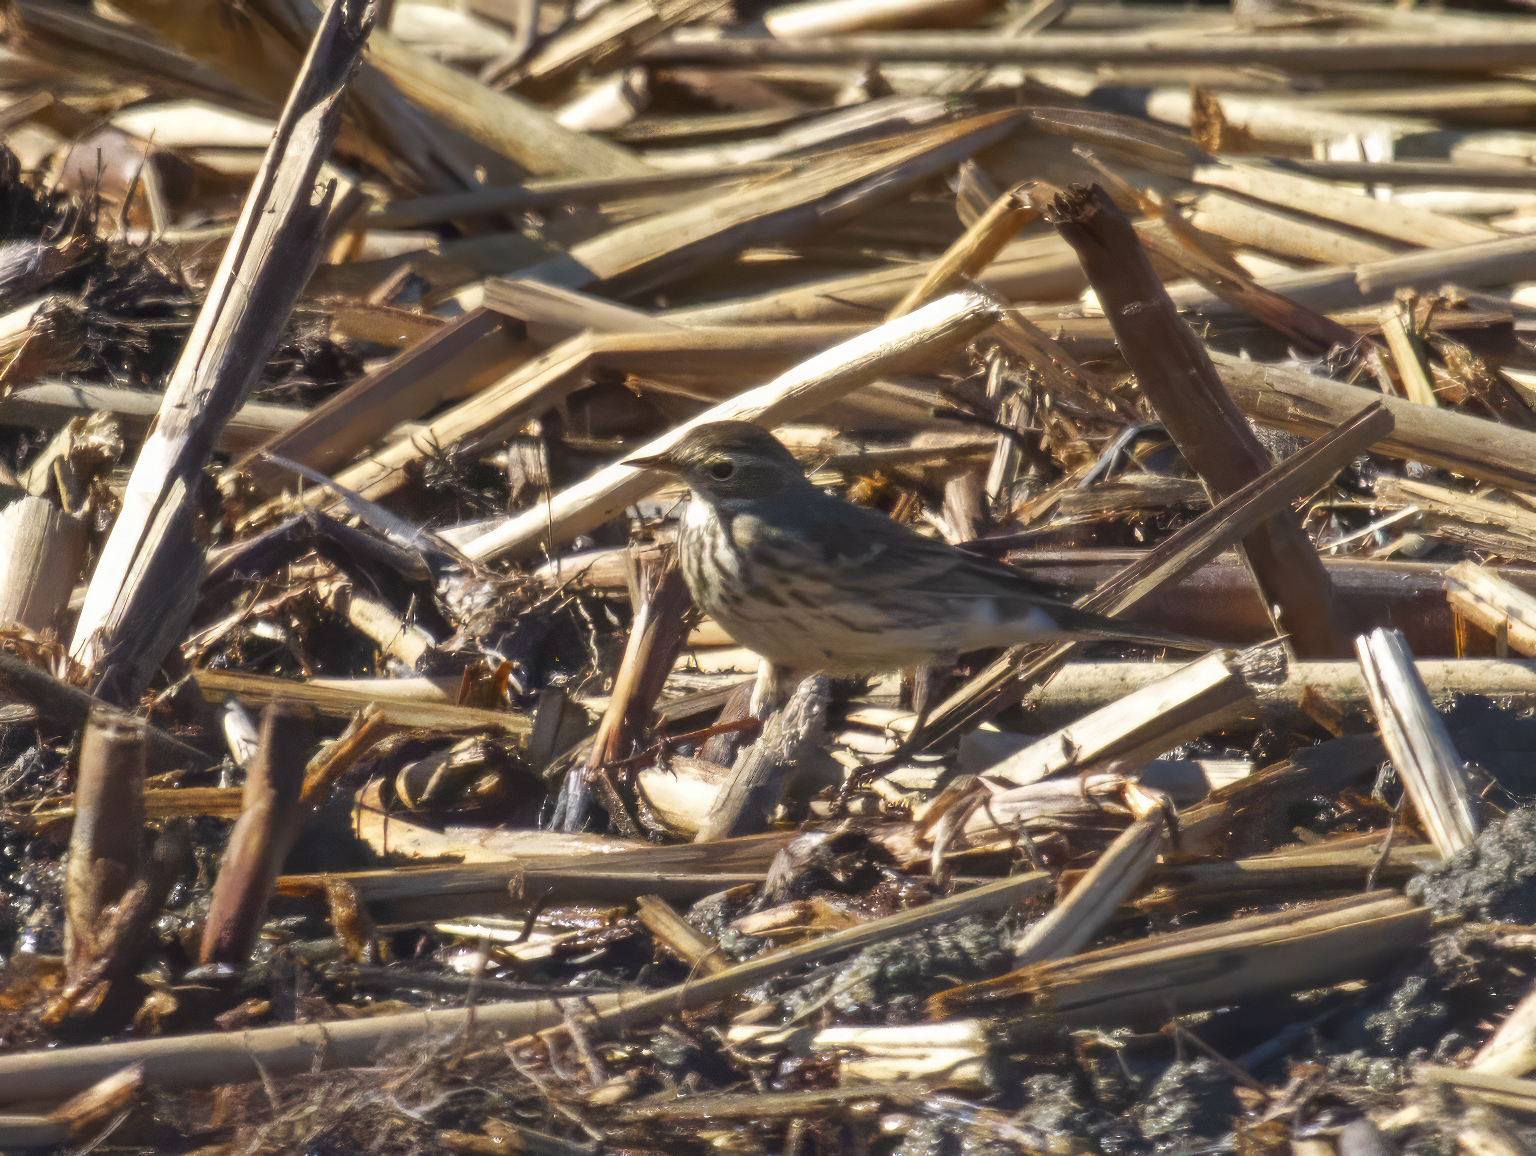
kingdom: Animalia
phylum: Chordata
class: Aves
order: Passeriformes
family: Motacillidae
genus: Anthus
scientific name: Anthus rubescens
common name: Buff-bellied pipit
